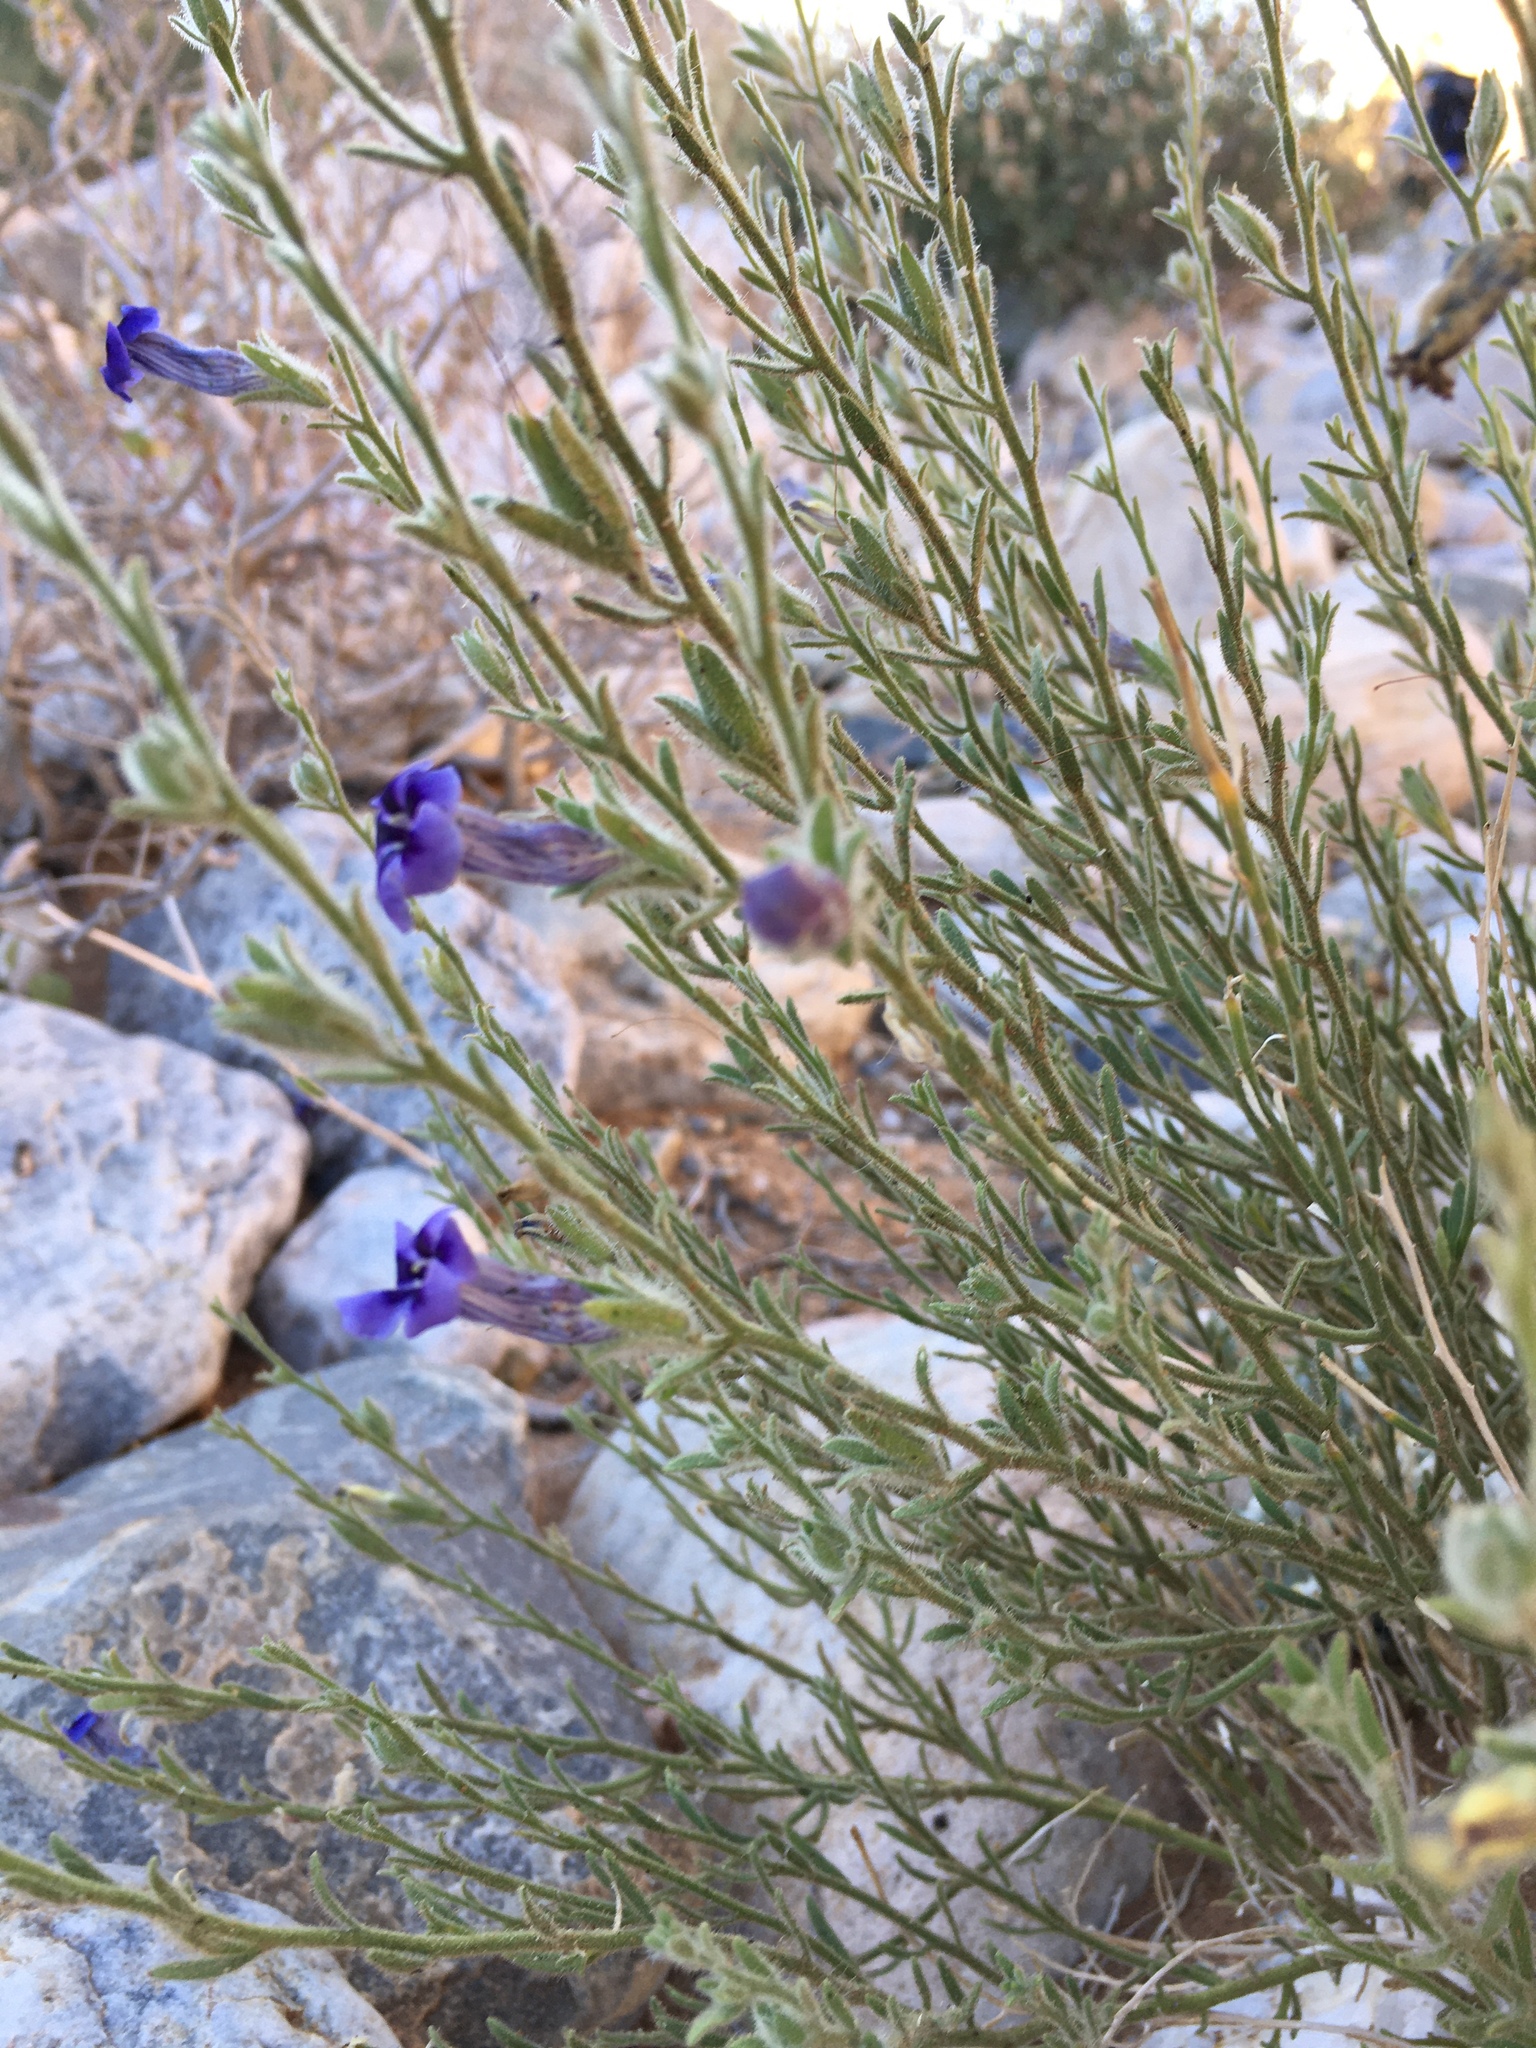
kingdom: Plantae
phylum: Tracheophyta
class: Magnoliopsida
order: Lamiales
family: Scrophulariaceae
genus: Anticharis
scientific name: Anticharis scoparia
